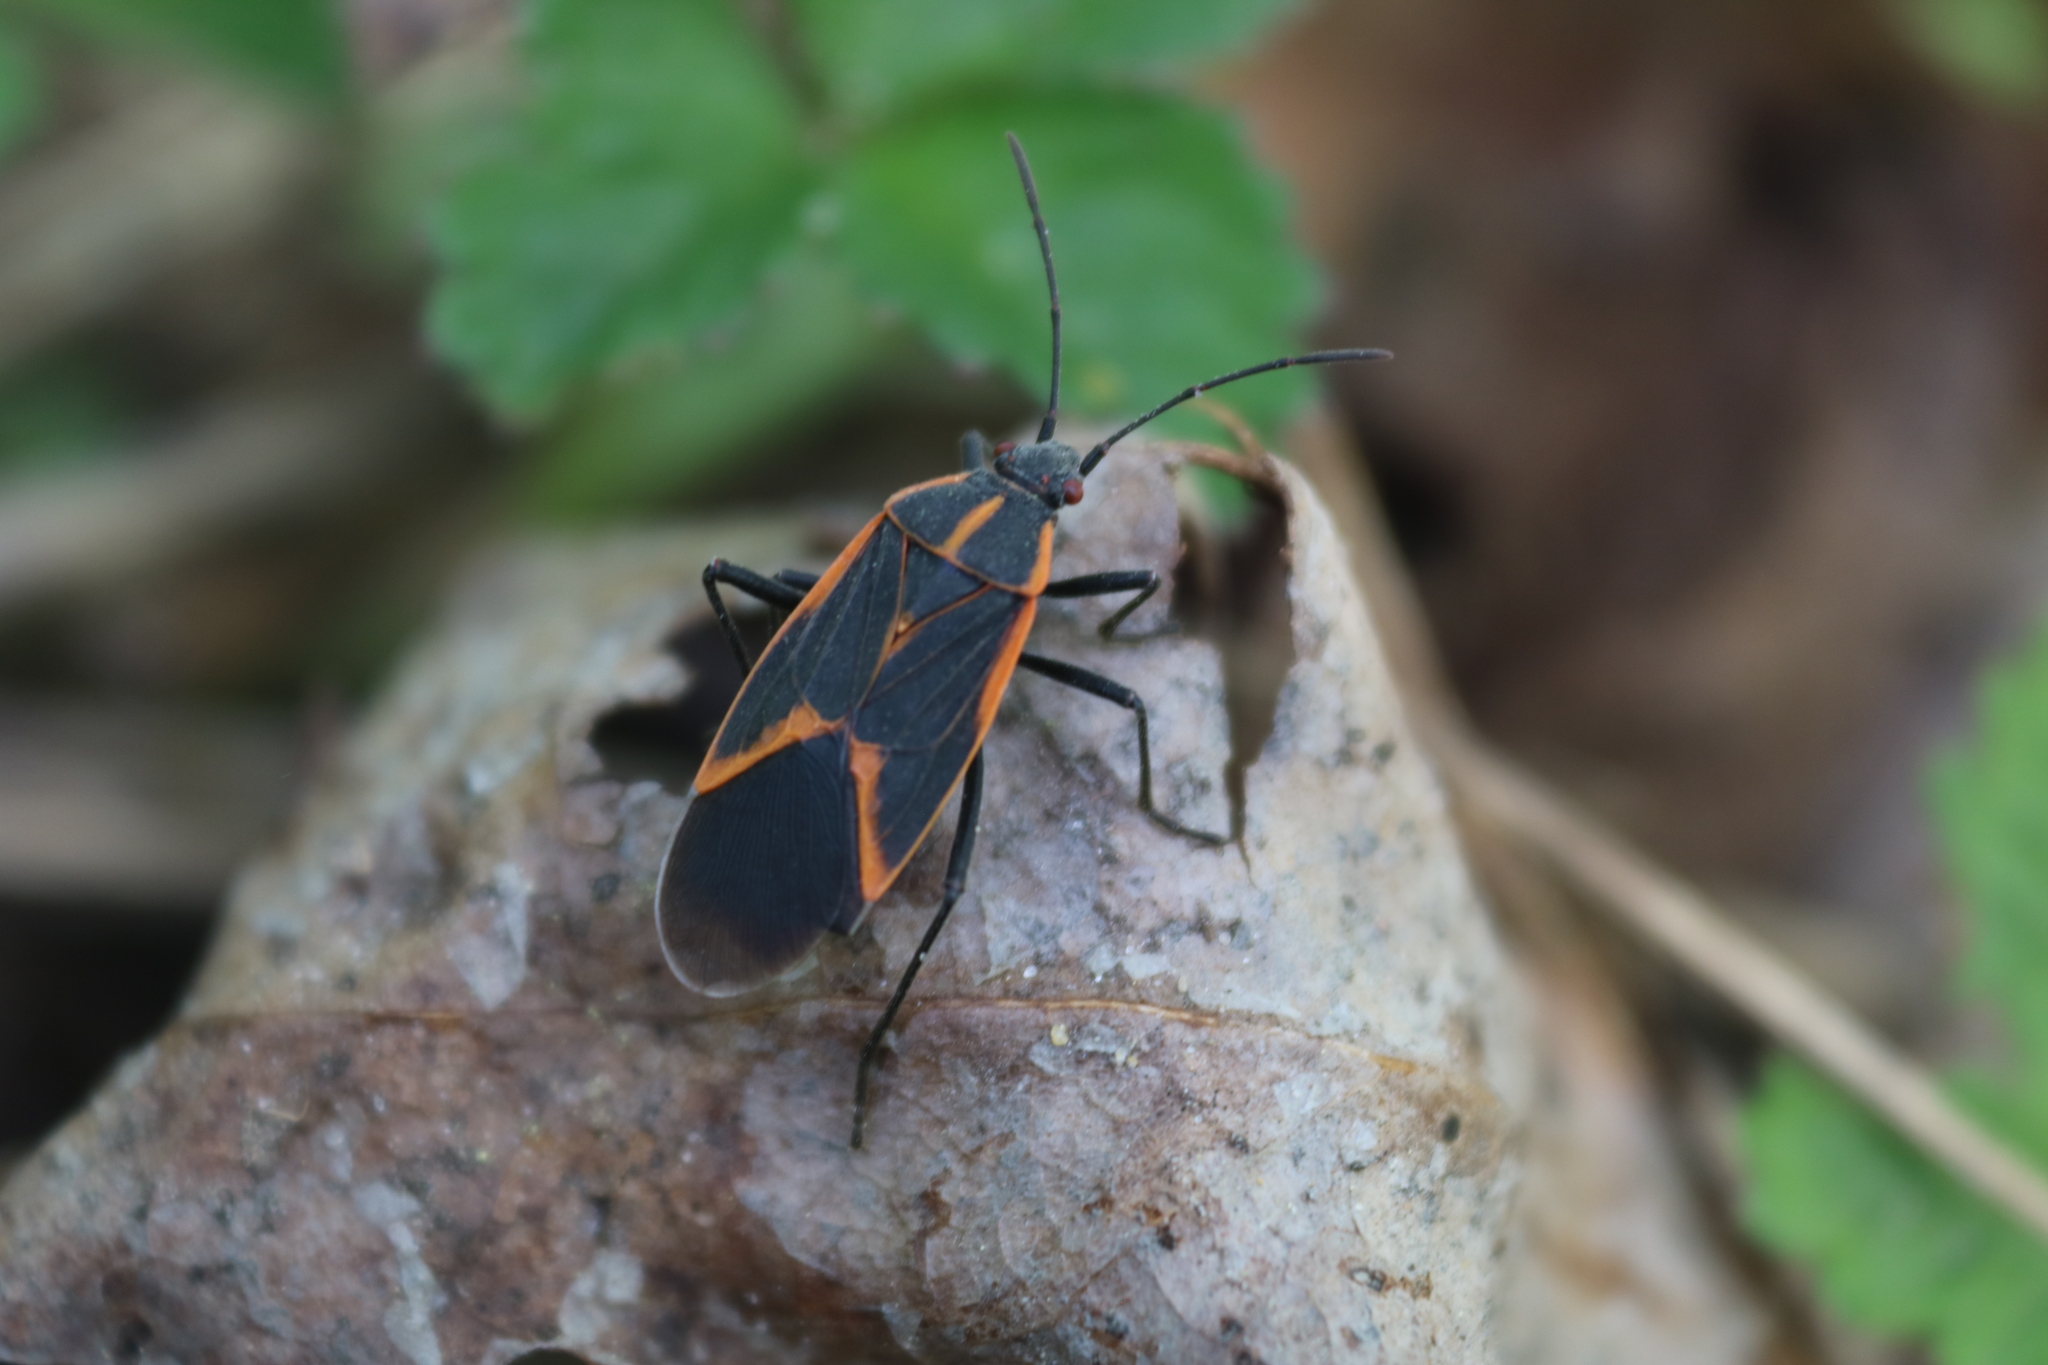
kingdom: Animalia
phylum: Arthropoda
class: Insecta
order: Hemiptera
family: Rhopalidae
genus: Boisea
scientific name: Boisea trivittata
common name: Boxelder bug
